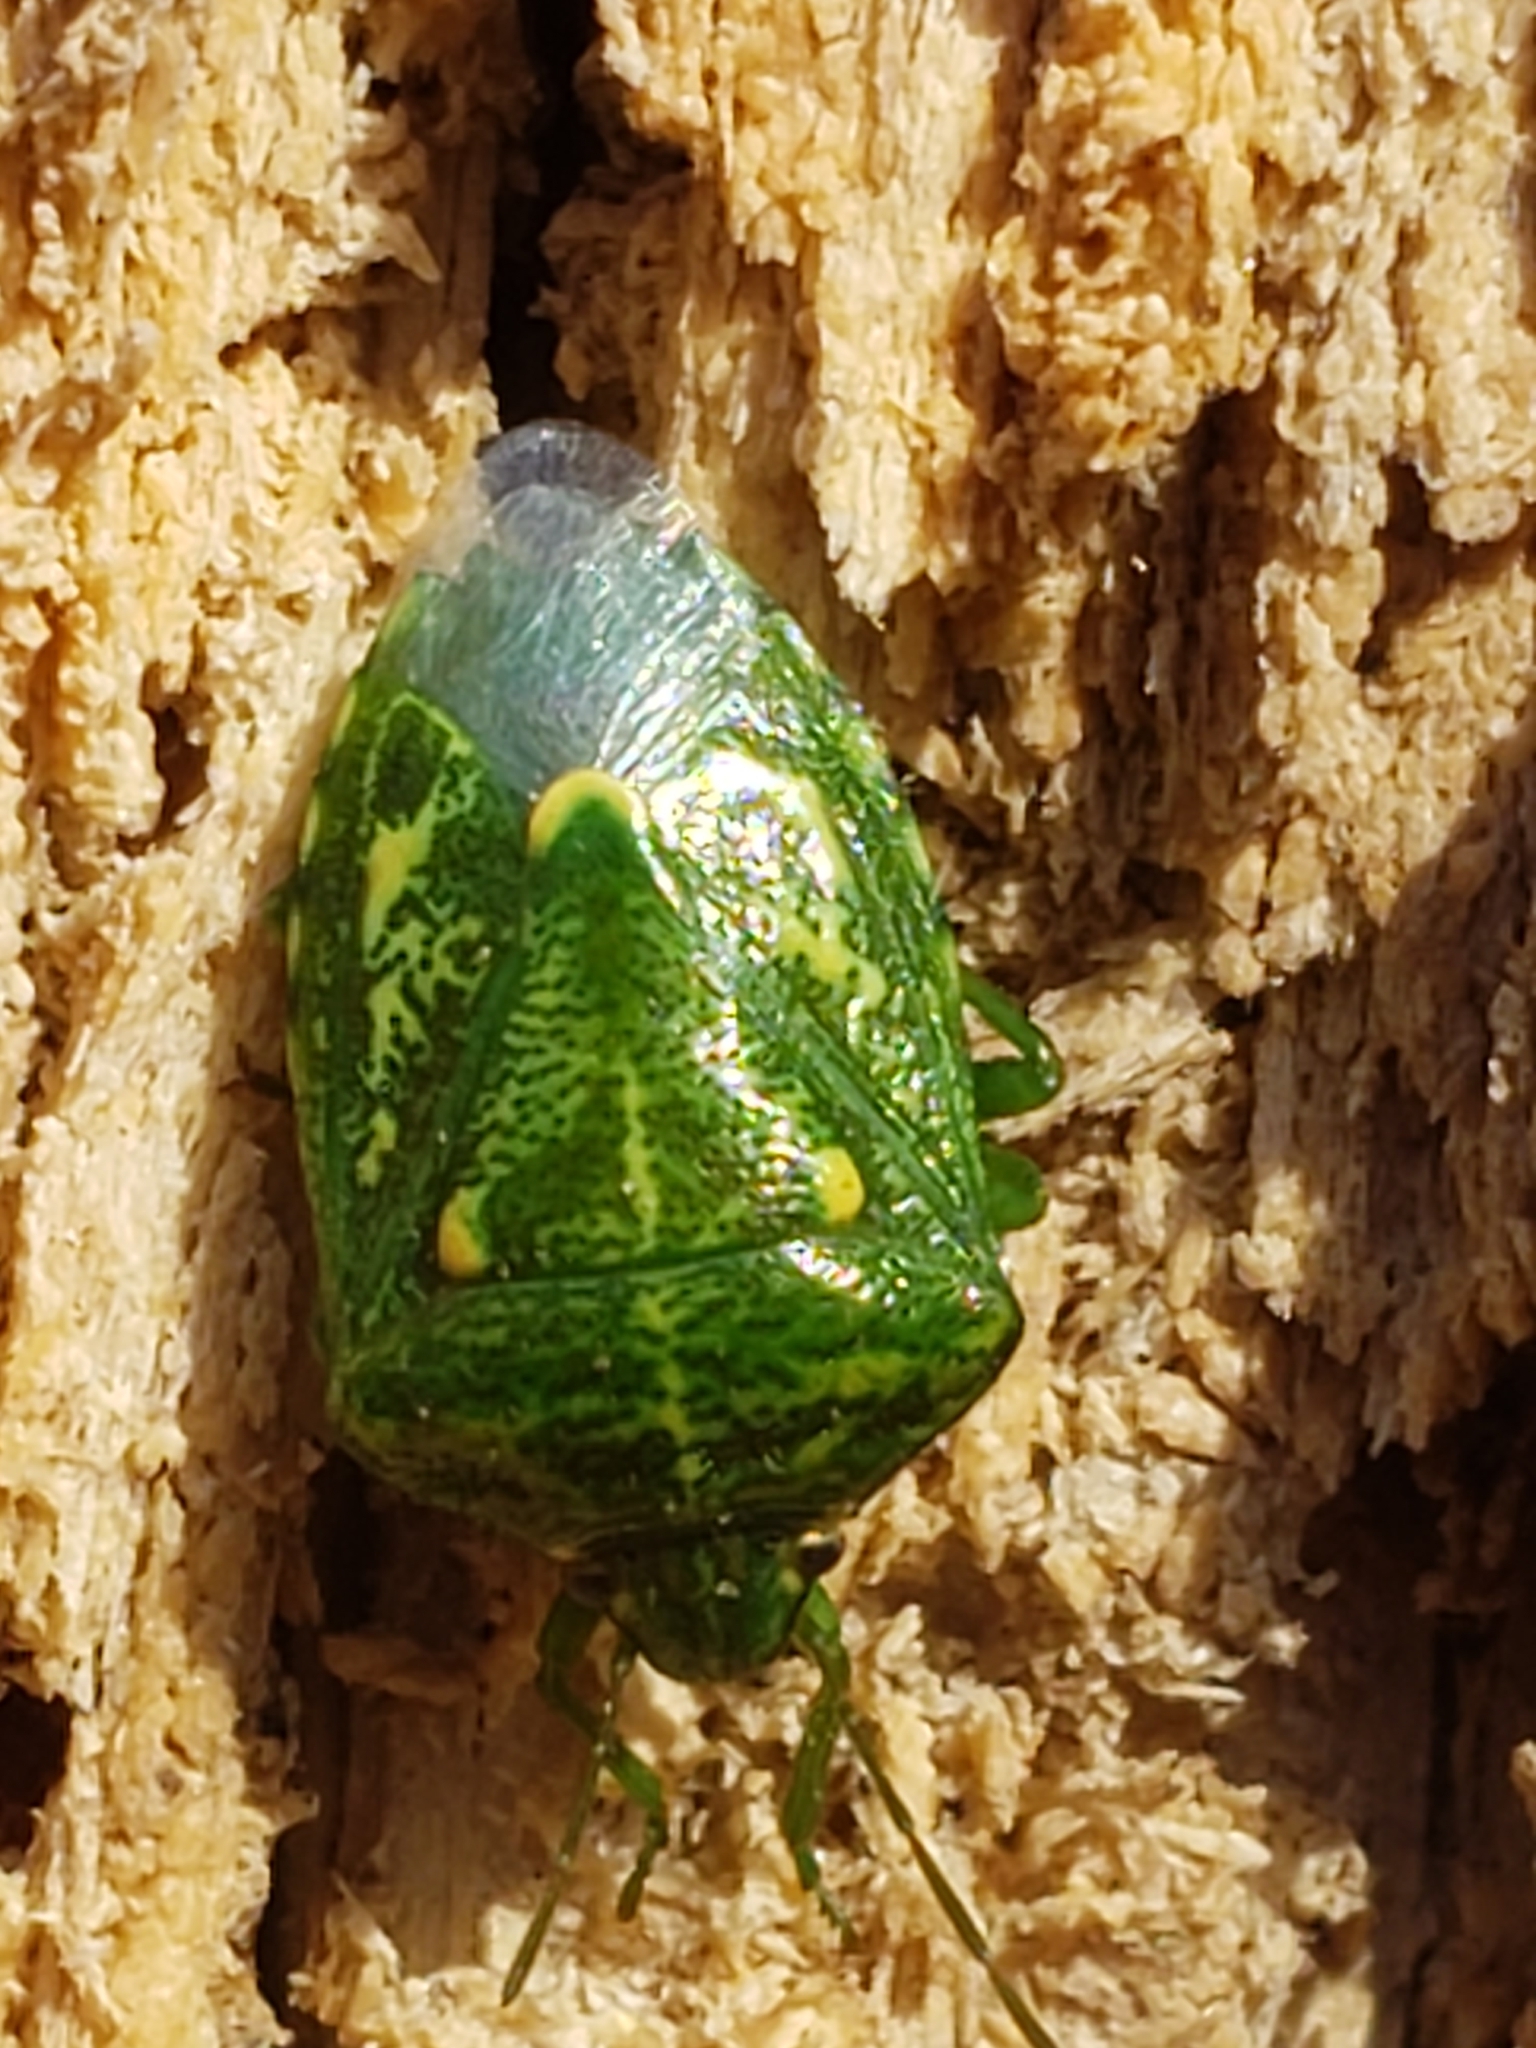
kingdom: Animalia
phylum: Arthropoda
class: Insecta
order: Hemiptera
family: Pentatomidae
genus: Banasa
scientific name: Banasa euchlora
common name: Cedar berry bug
